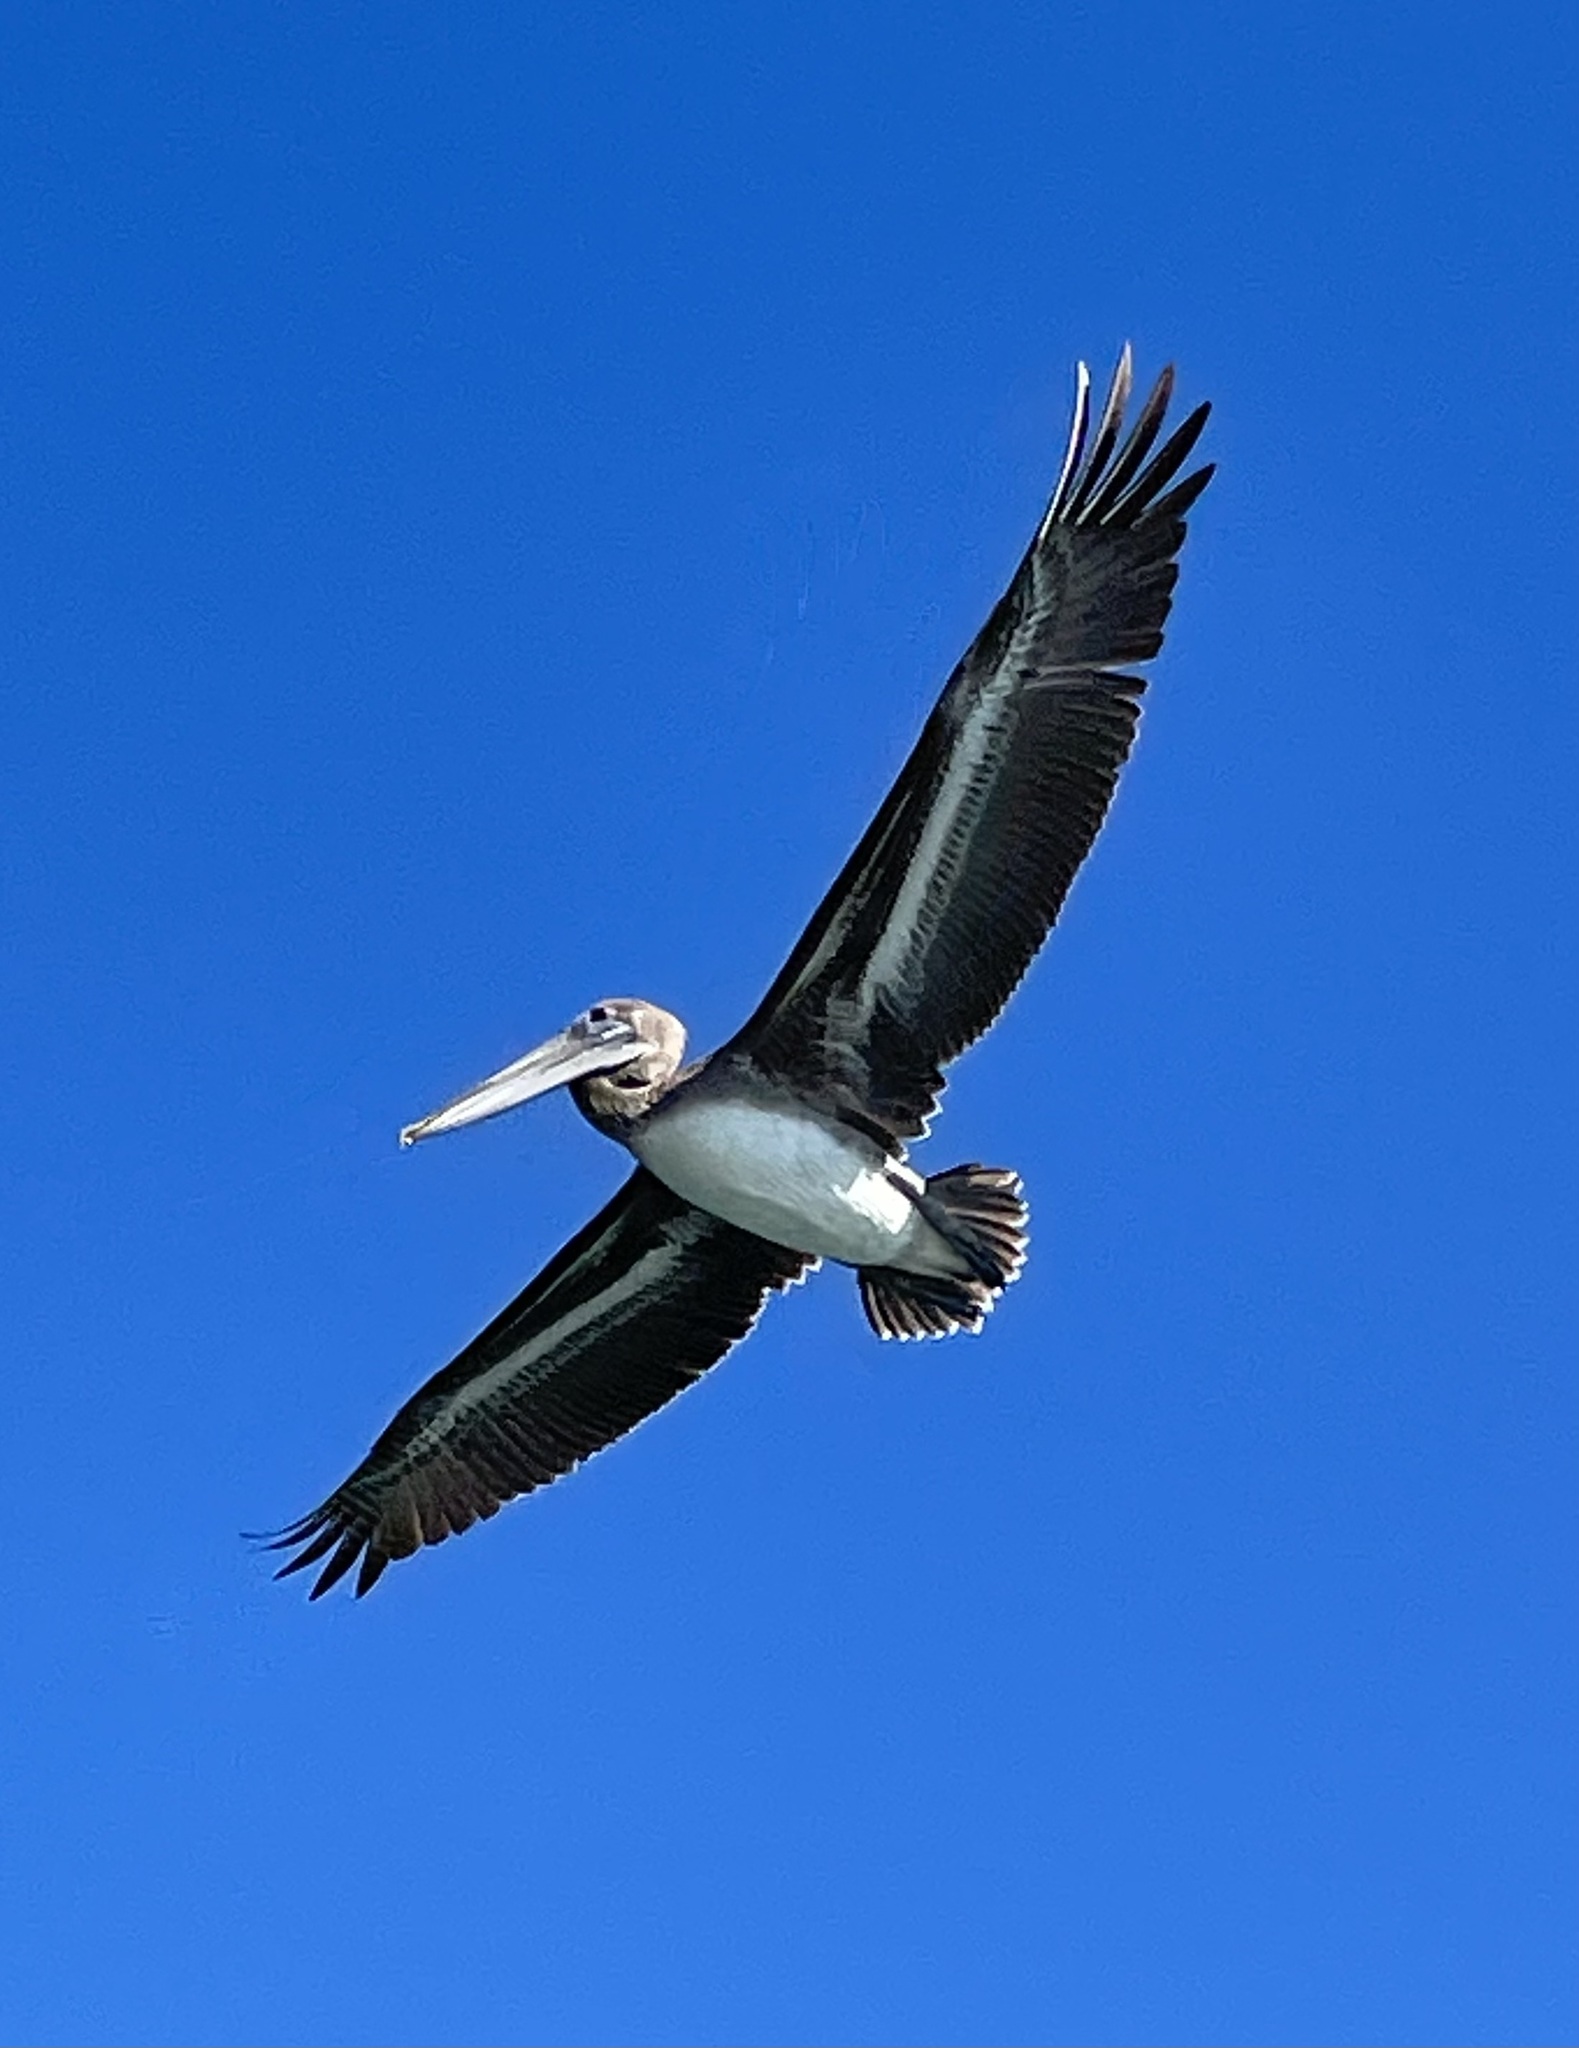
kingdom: Animalia
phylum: Chordata
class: Aves
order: Pelecaniformes
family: Pelecanidae
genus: Pelecanus
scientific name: Pelecanus occidentalis
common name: Brown pelican
